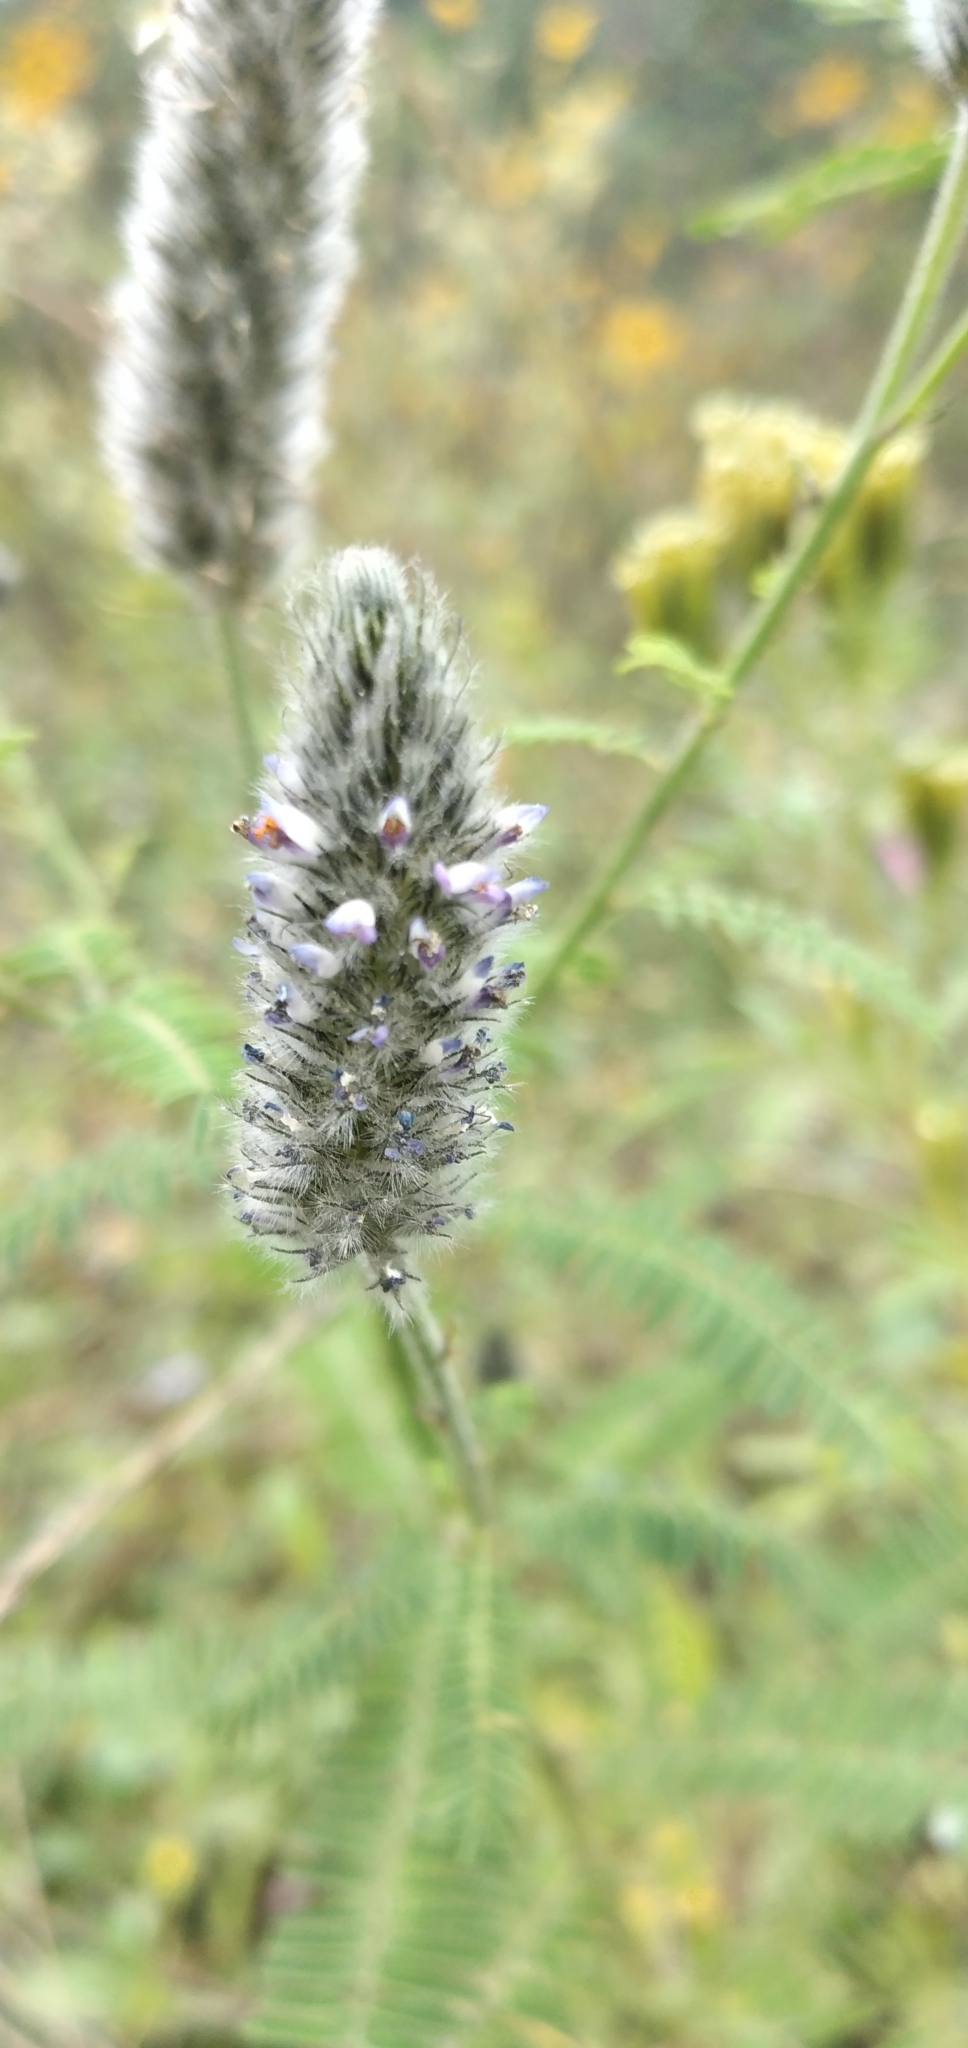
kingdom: Plantae
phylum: Tracheophyta
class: Magnoliopsida
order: Fabales
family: Fabaceae
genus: Dalea
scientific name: Dalea leporina
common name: Foxtail dalea
